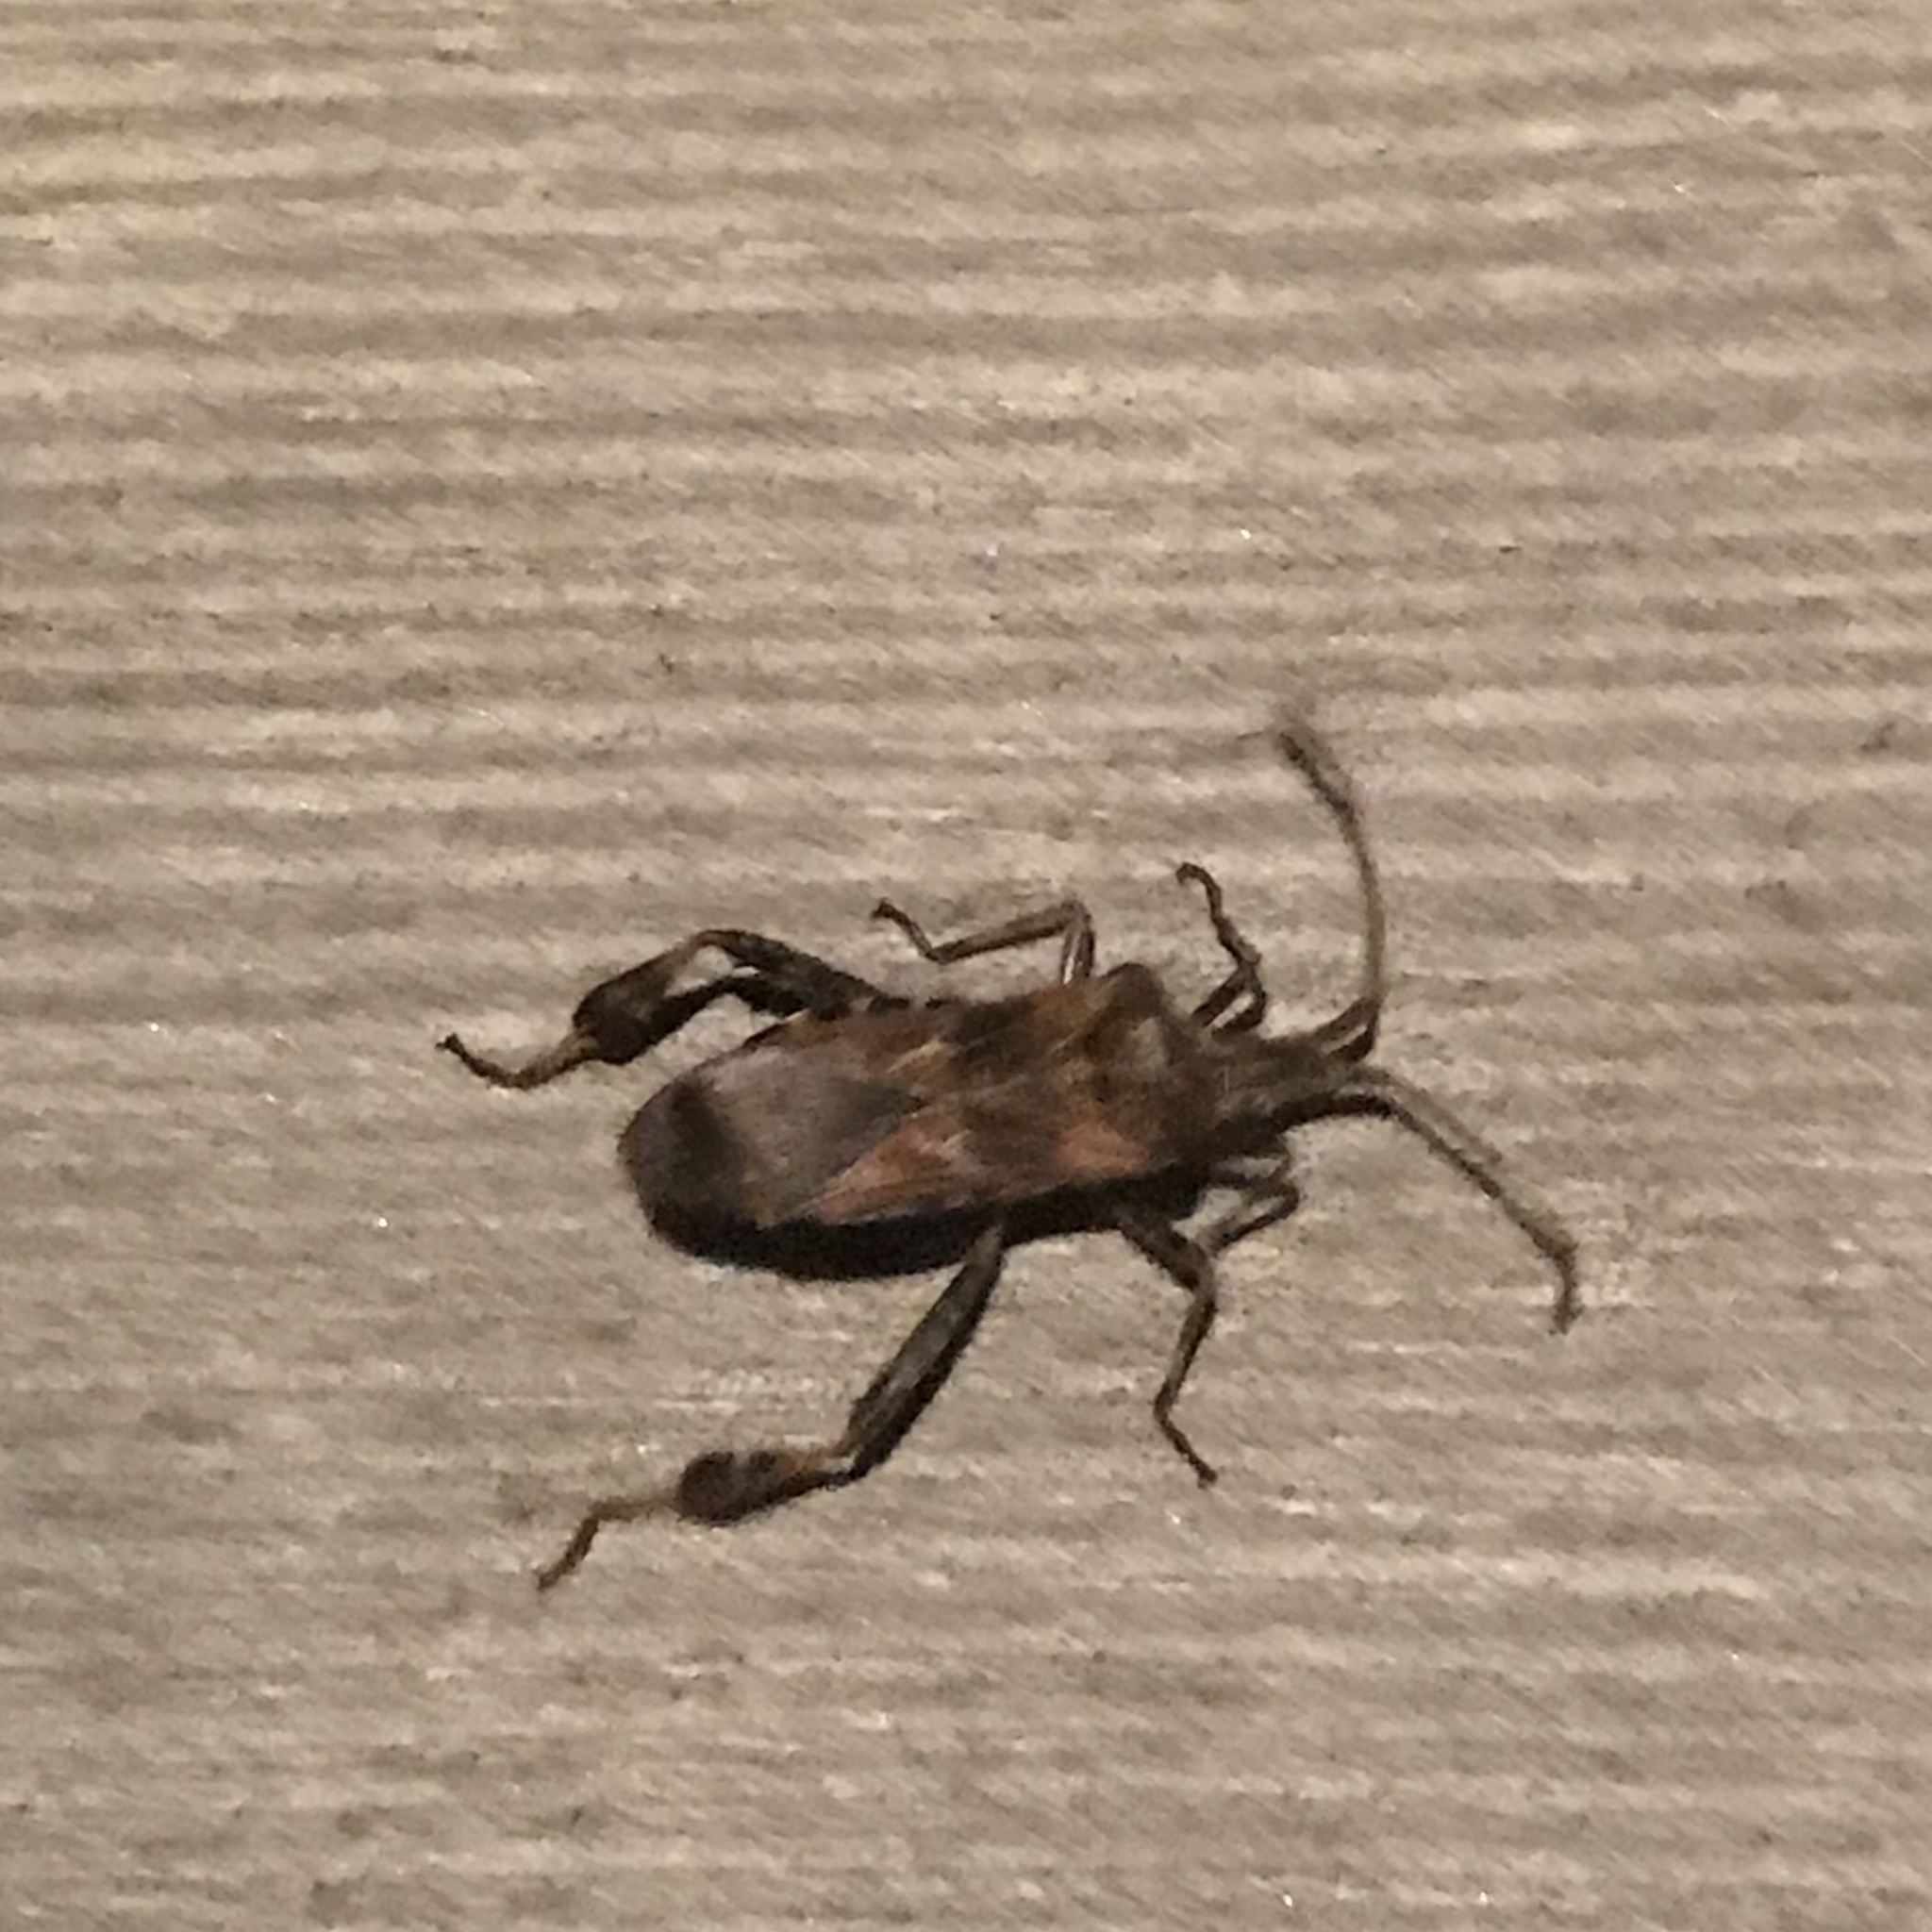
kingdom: Animalia
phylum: Arthropoda
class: Insecta
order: Hemiptera
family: Coreidae
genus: Leptoglossus
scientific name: Leptoglossus occidentalis
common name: Western conifer-seed bug
